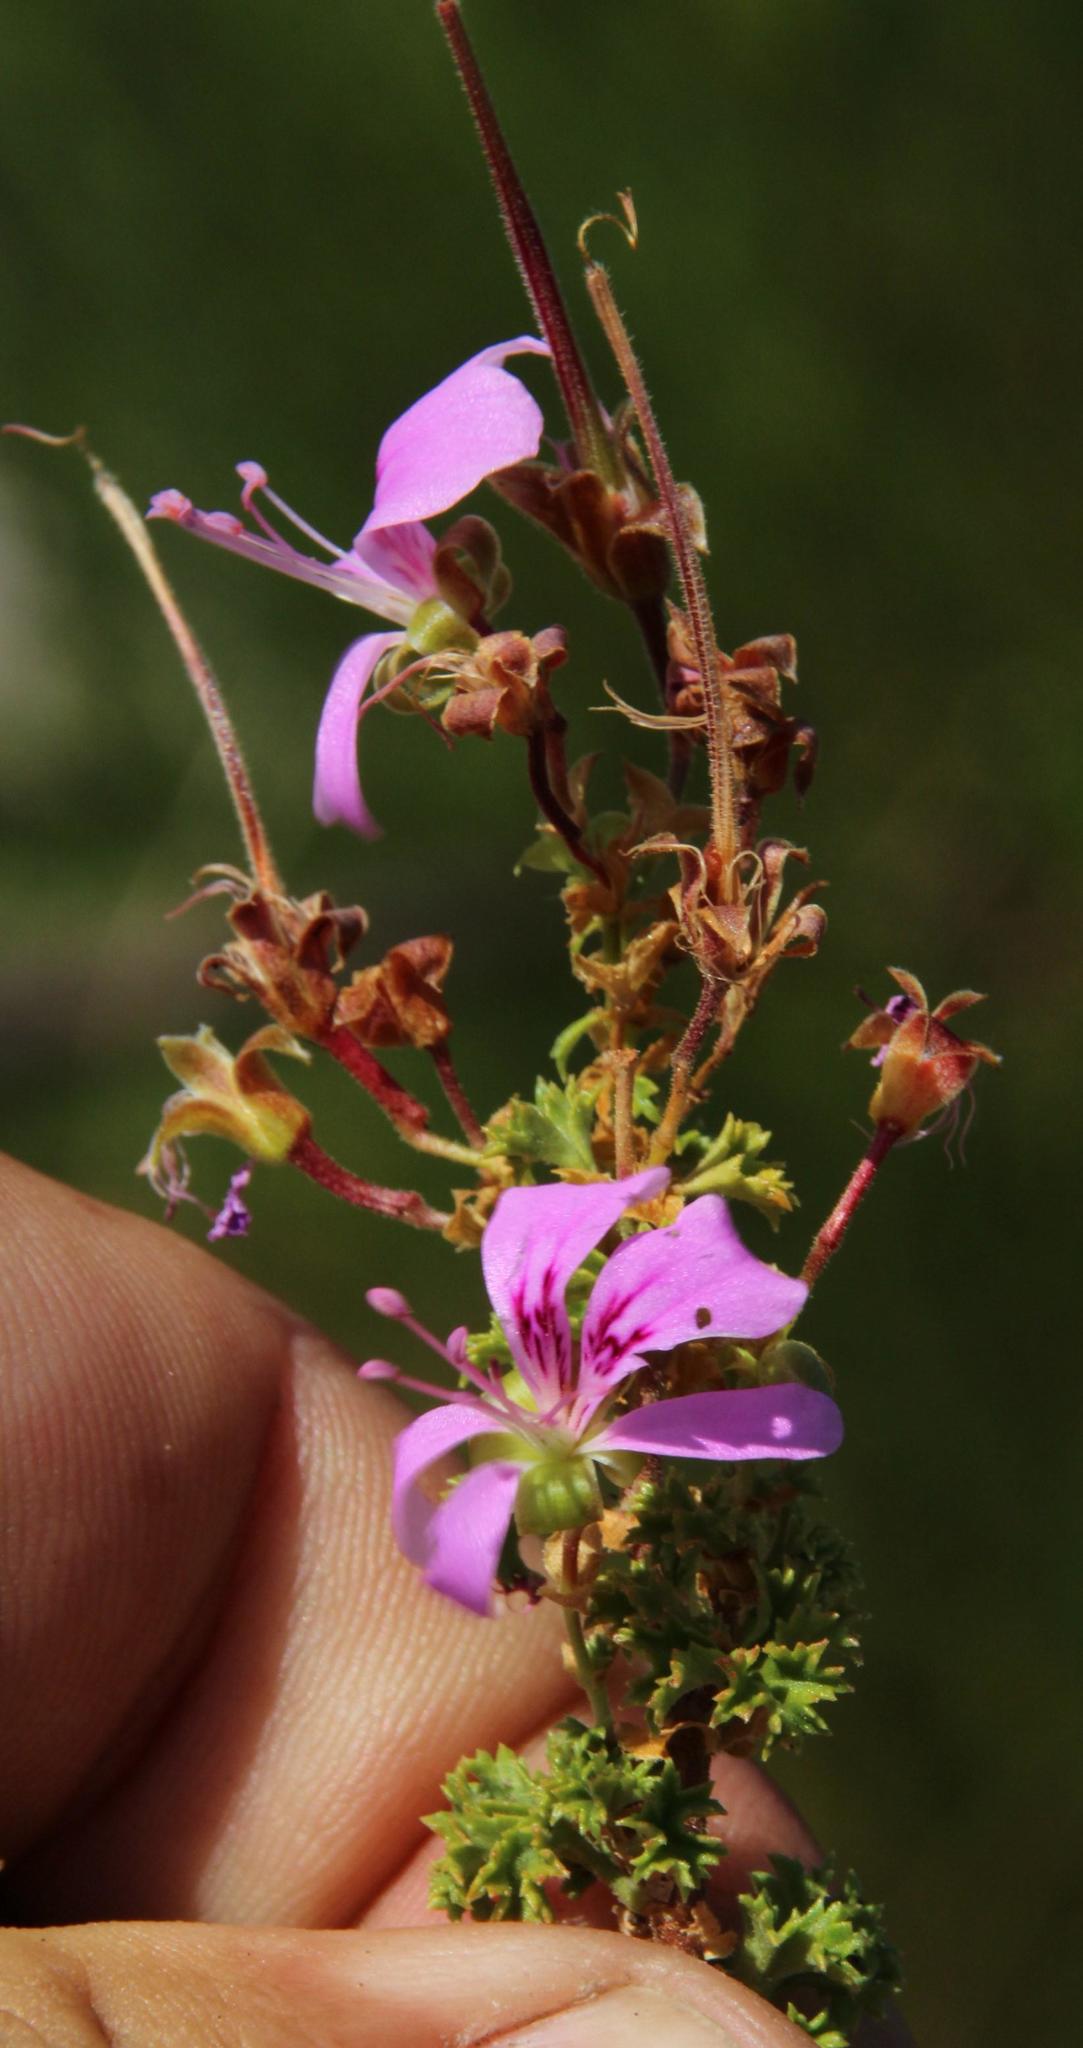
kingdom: Plantae
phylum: Tracheophyta
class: Magnoliopsida
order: Geraniales
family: Geraniaceae
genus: Pelargonium
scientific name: Pelargonium englerianum
